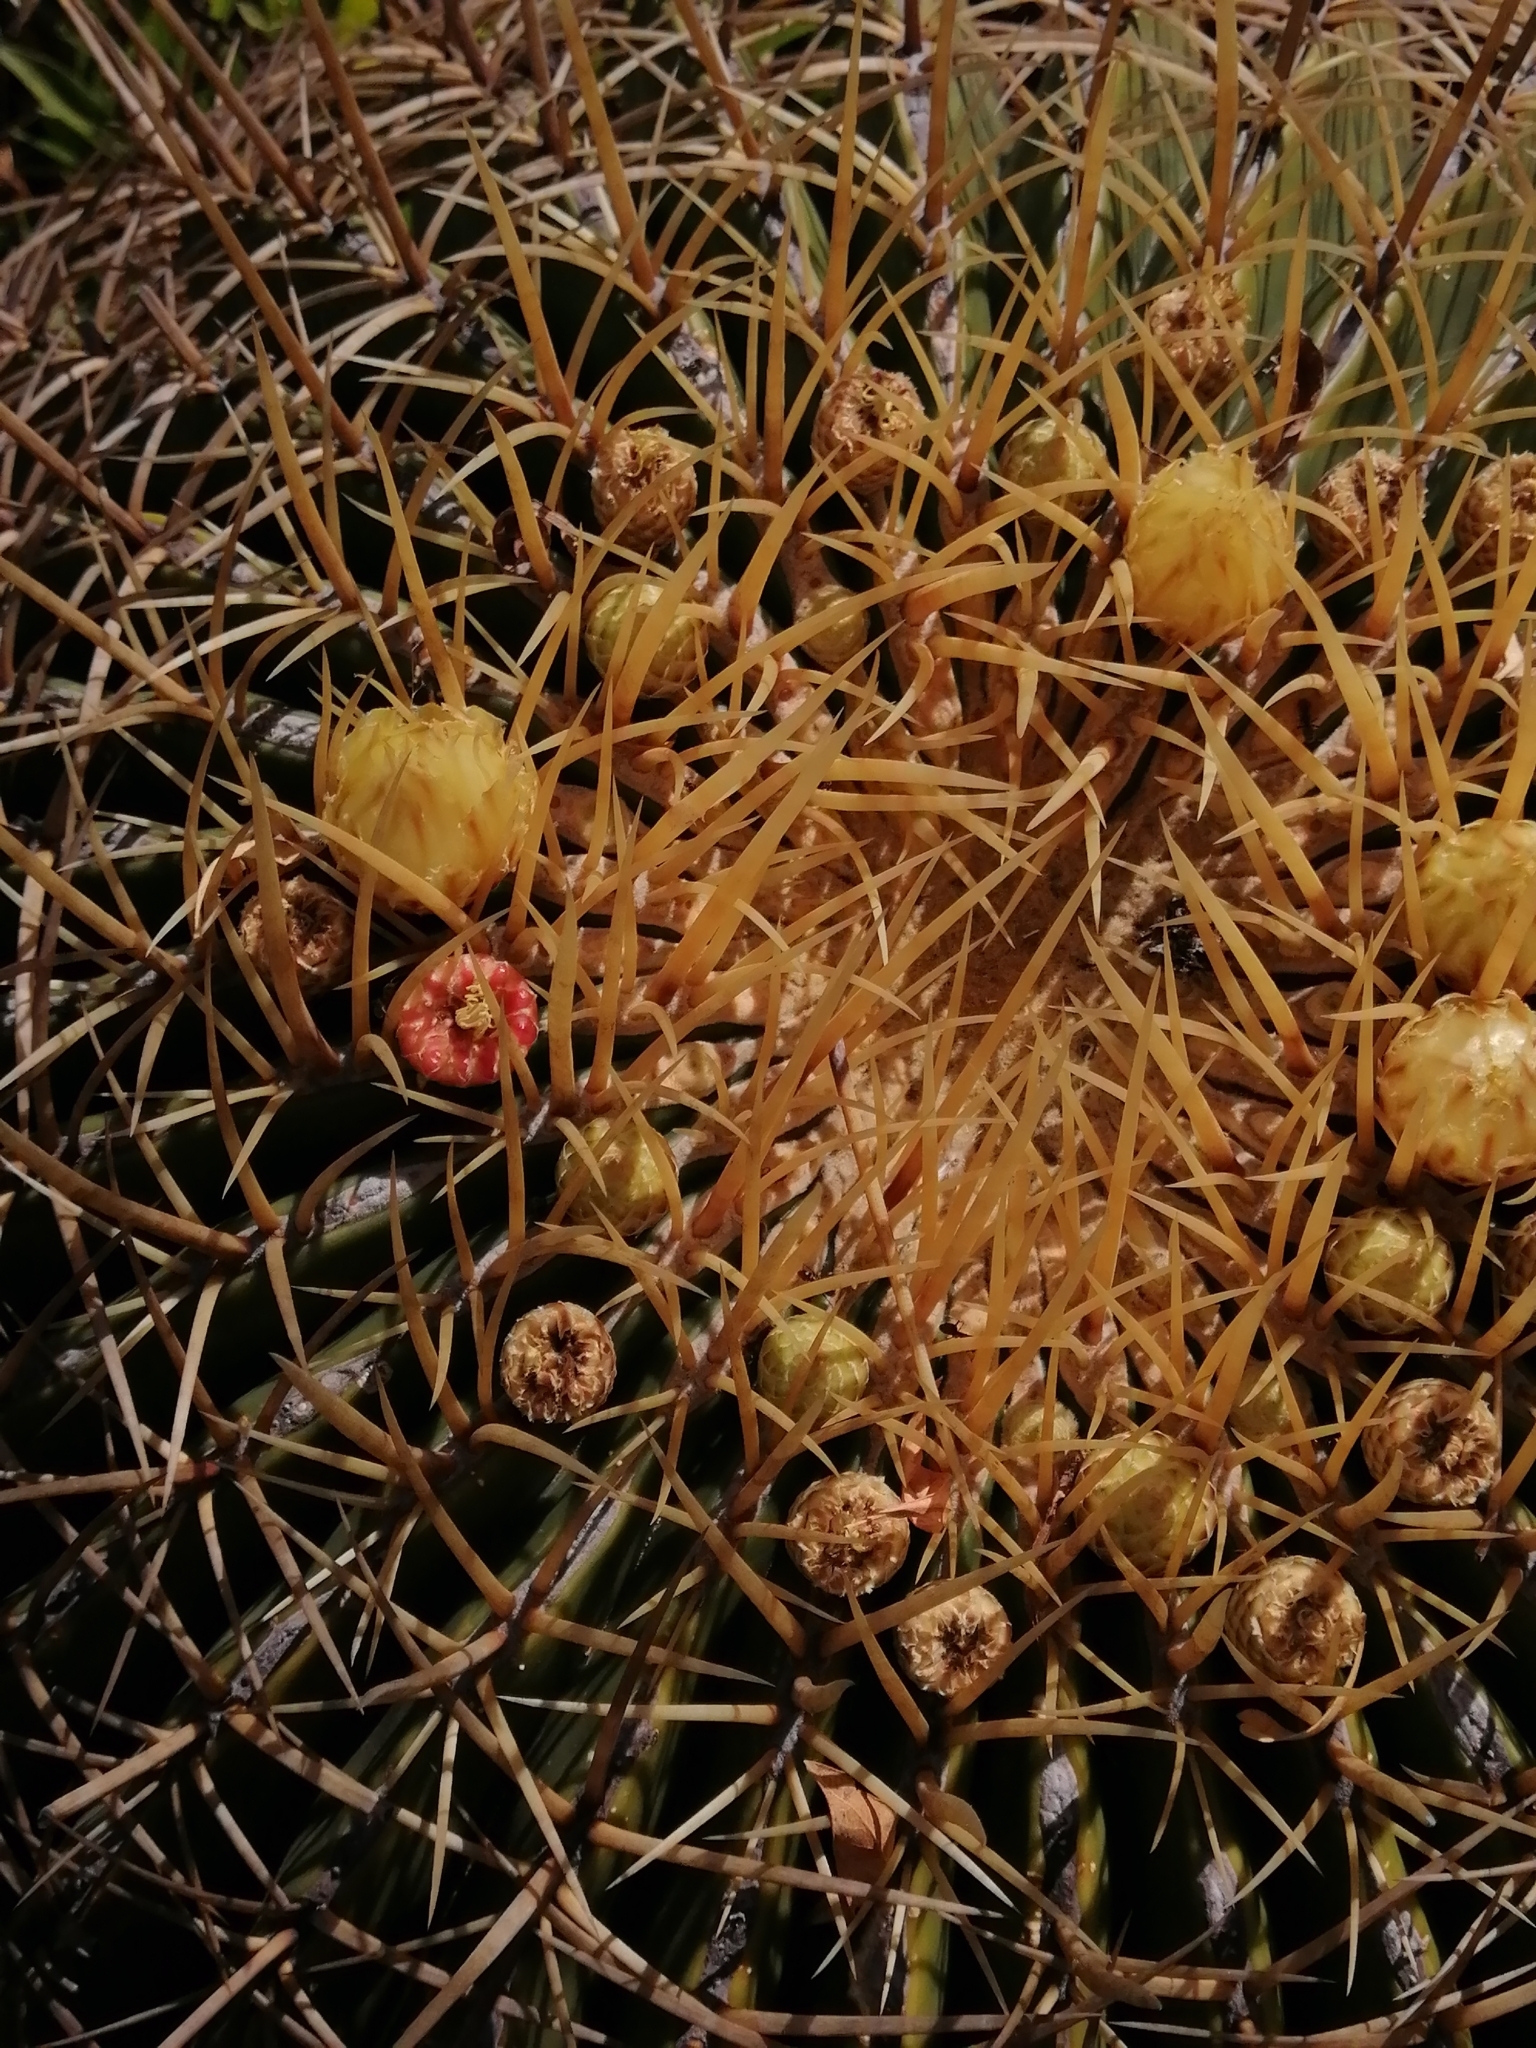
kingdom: Plantae
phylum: Tracheophyta
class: Magnoliopsida
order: Caryophyllales
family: Cactaceae
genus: Bisnaga
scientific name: Bisnaga histrix
